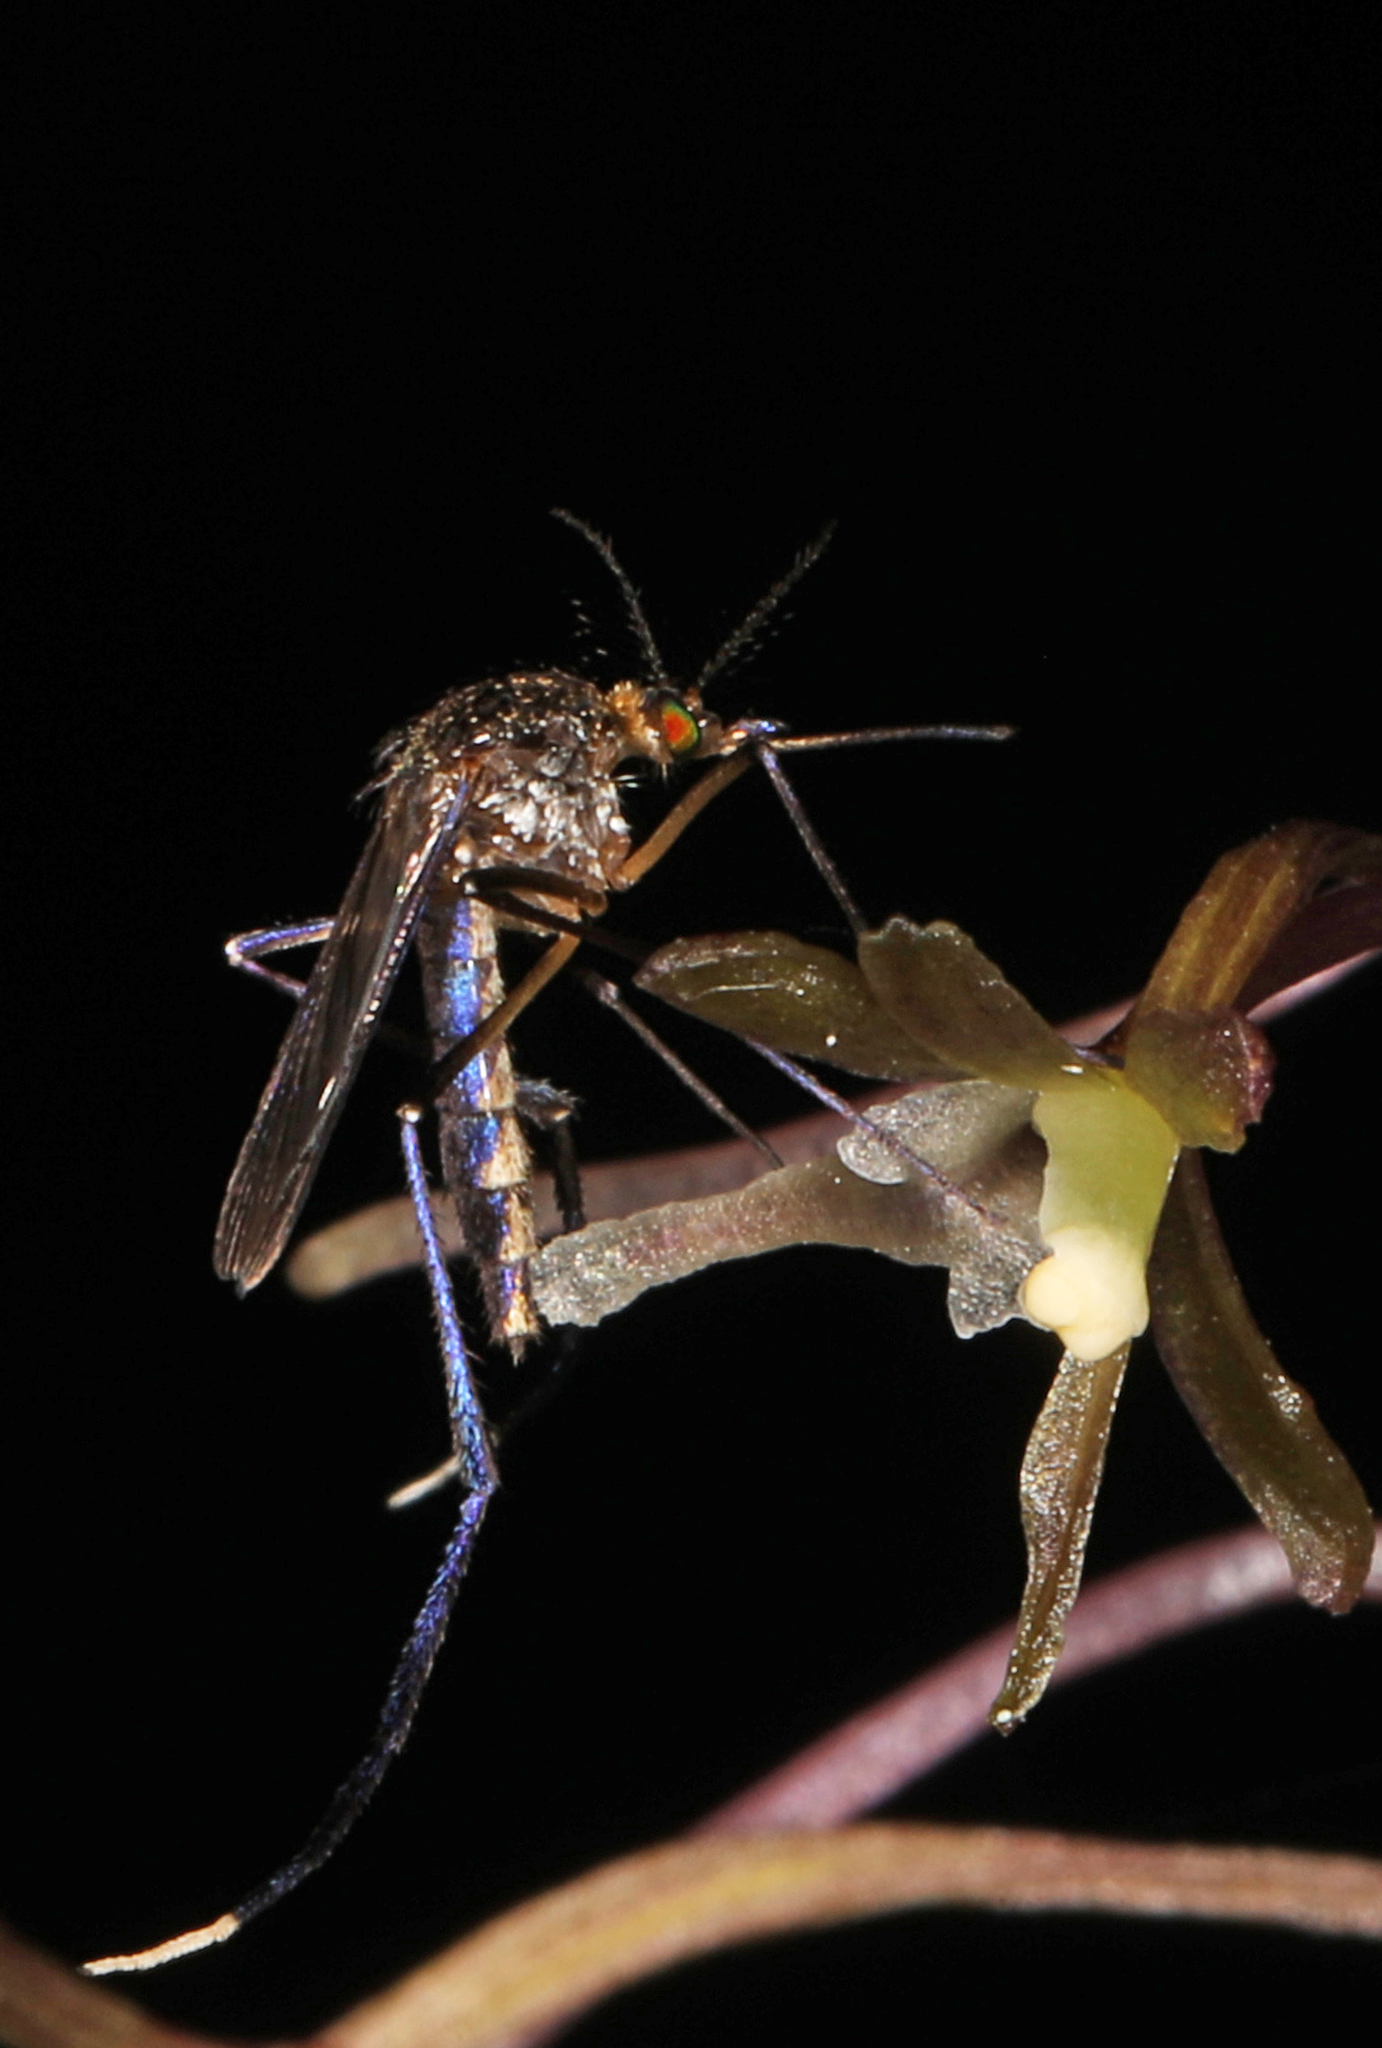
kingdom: Animalia
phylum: Arthropoda
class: Insecta
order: Diptera
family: Culicidae
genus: Psorophora
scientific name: Psorophora ferox
